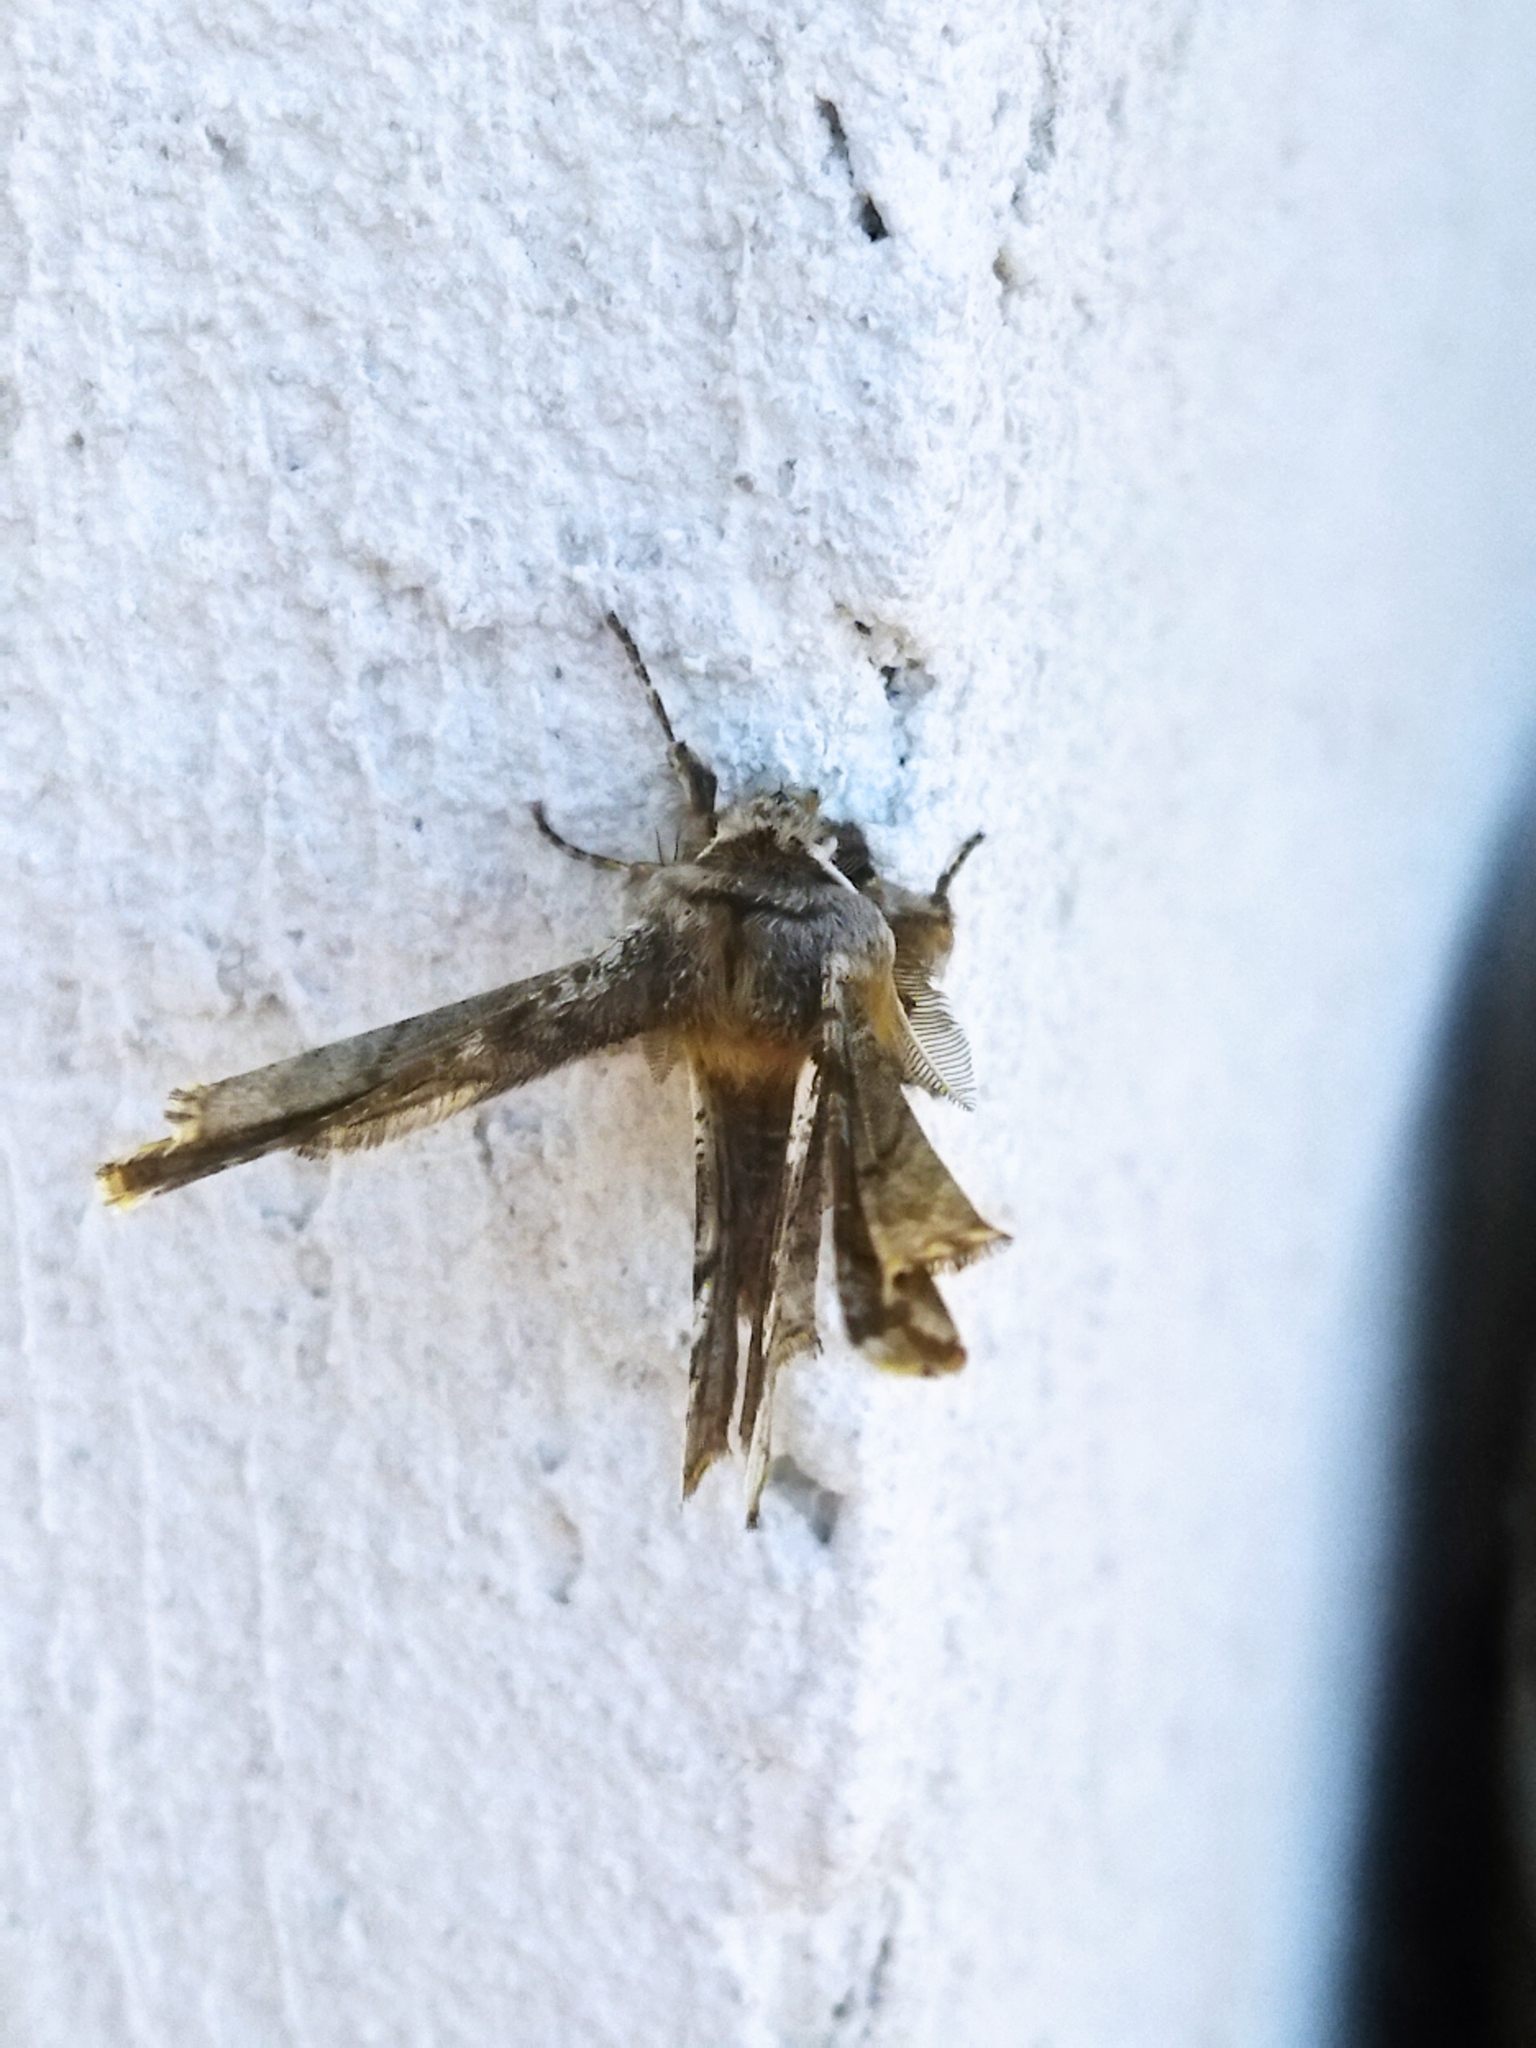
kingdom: Animalia
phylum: Arthropoda
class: Insecta
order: Lepidoptera
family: Geometridae
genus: Apochima
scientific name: Apochima flabellaria
